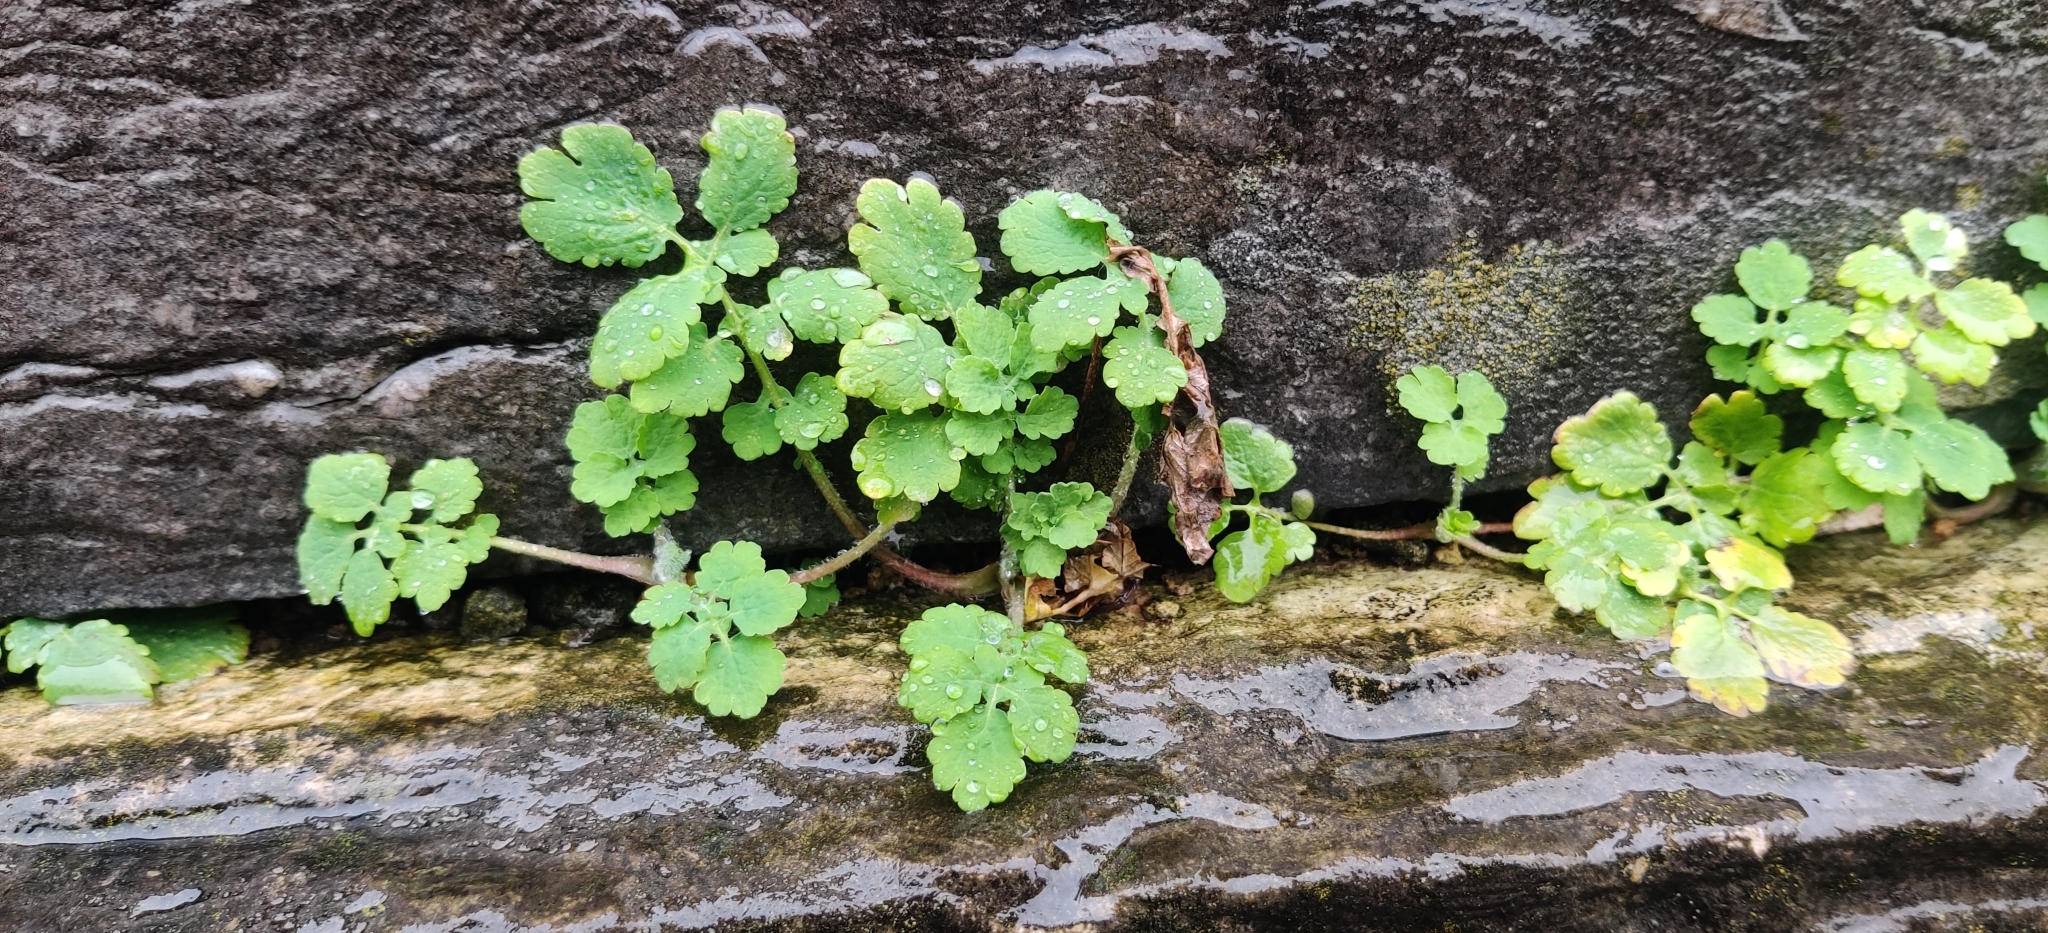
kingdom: Plantae
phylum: Tracheophyta
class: Magnoliopsida
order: Ranunculales
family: Papaveraceae
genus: Chelidonium
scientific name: Chelidonium majus
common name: Greater celandine
